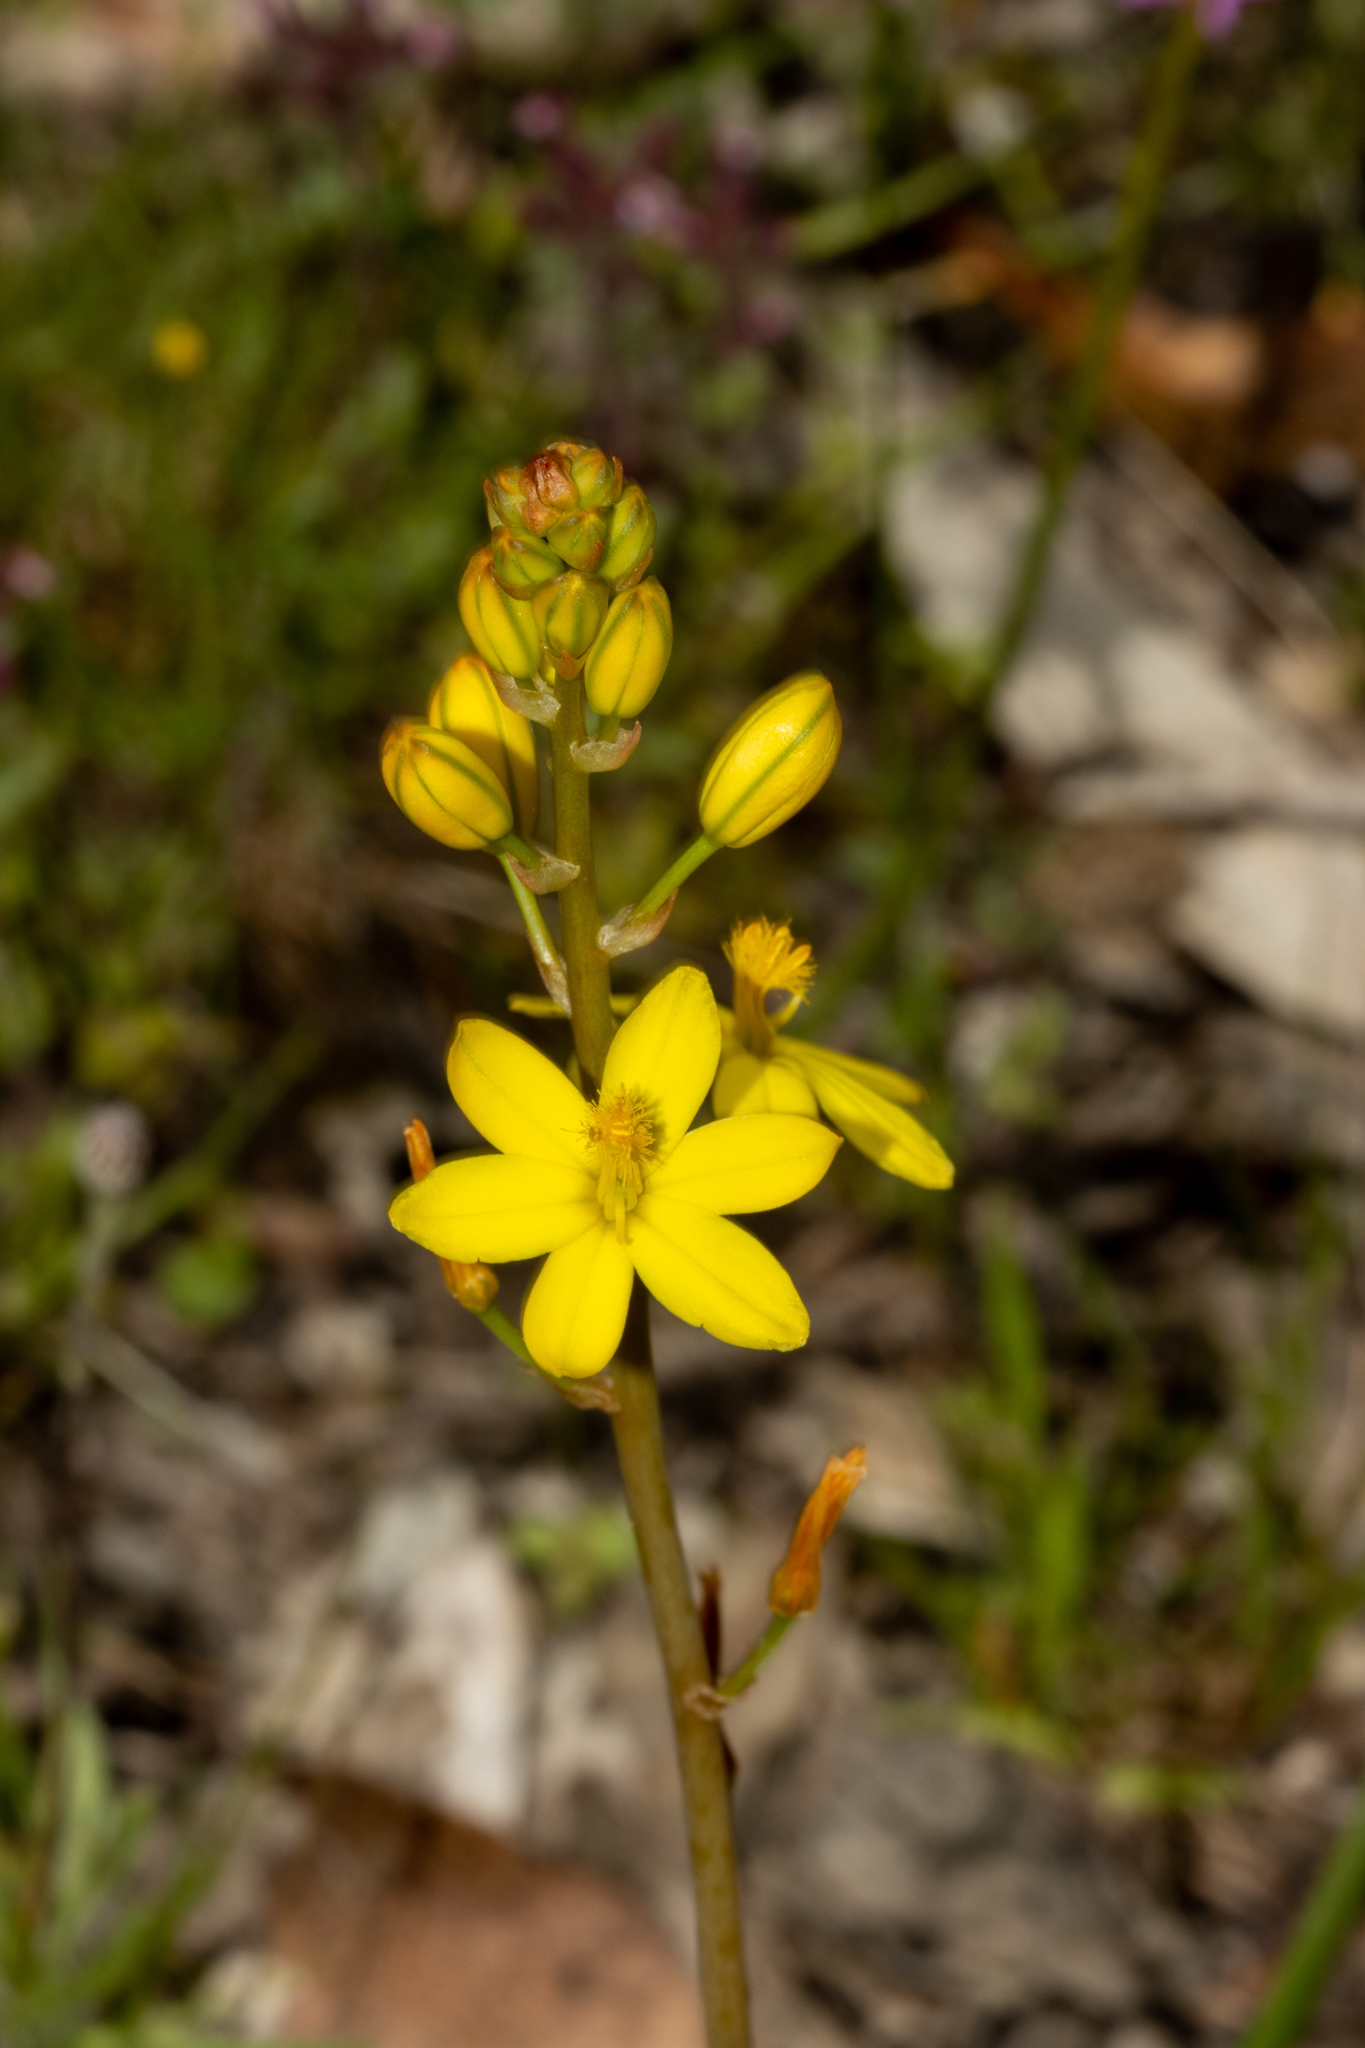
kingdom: Plantae
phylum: Tracheophyta
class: Liliopsida
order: Asparagales
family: Asphodelaceae
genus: Bulbine
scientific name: Bulbine bulbosa
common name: Golden-lily
